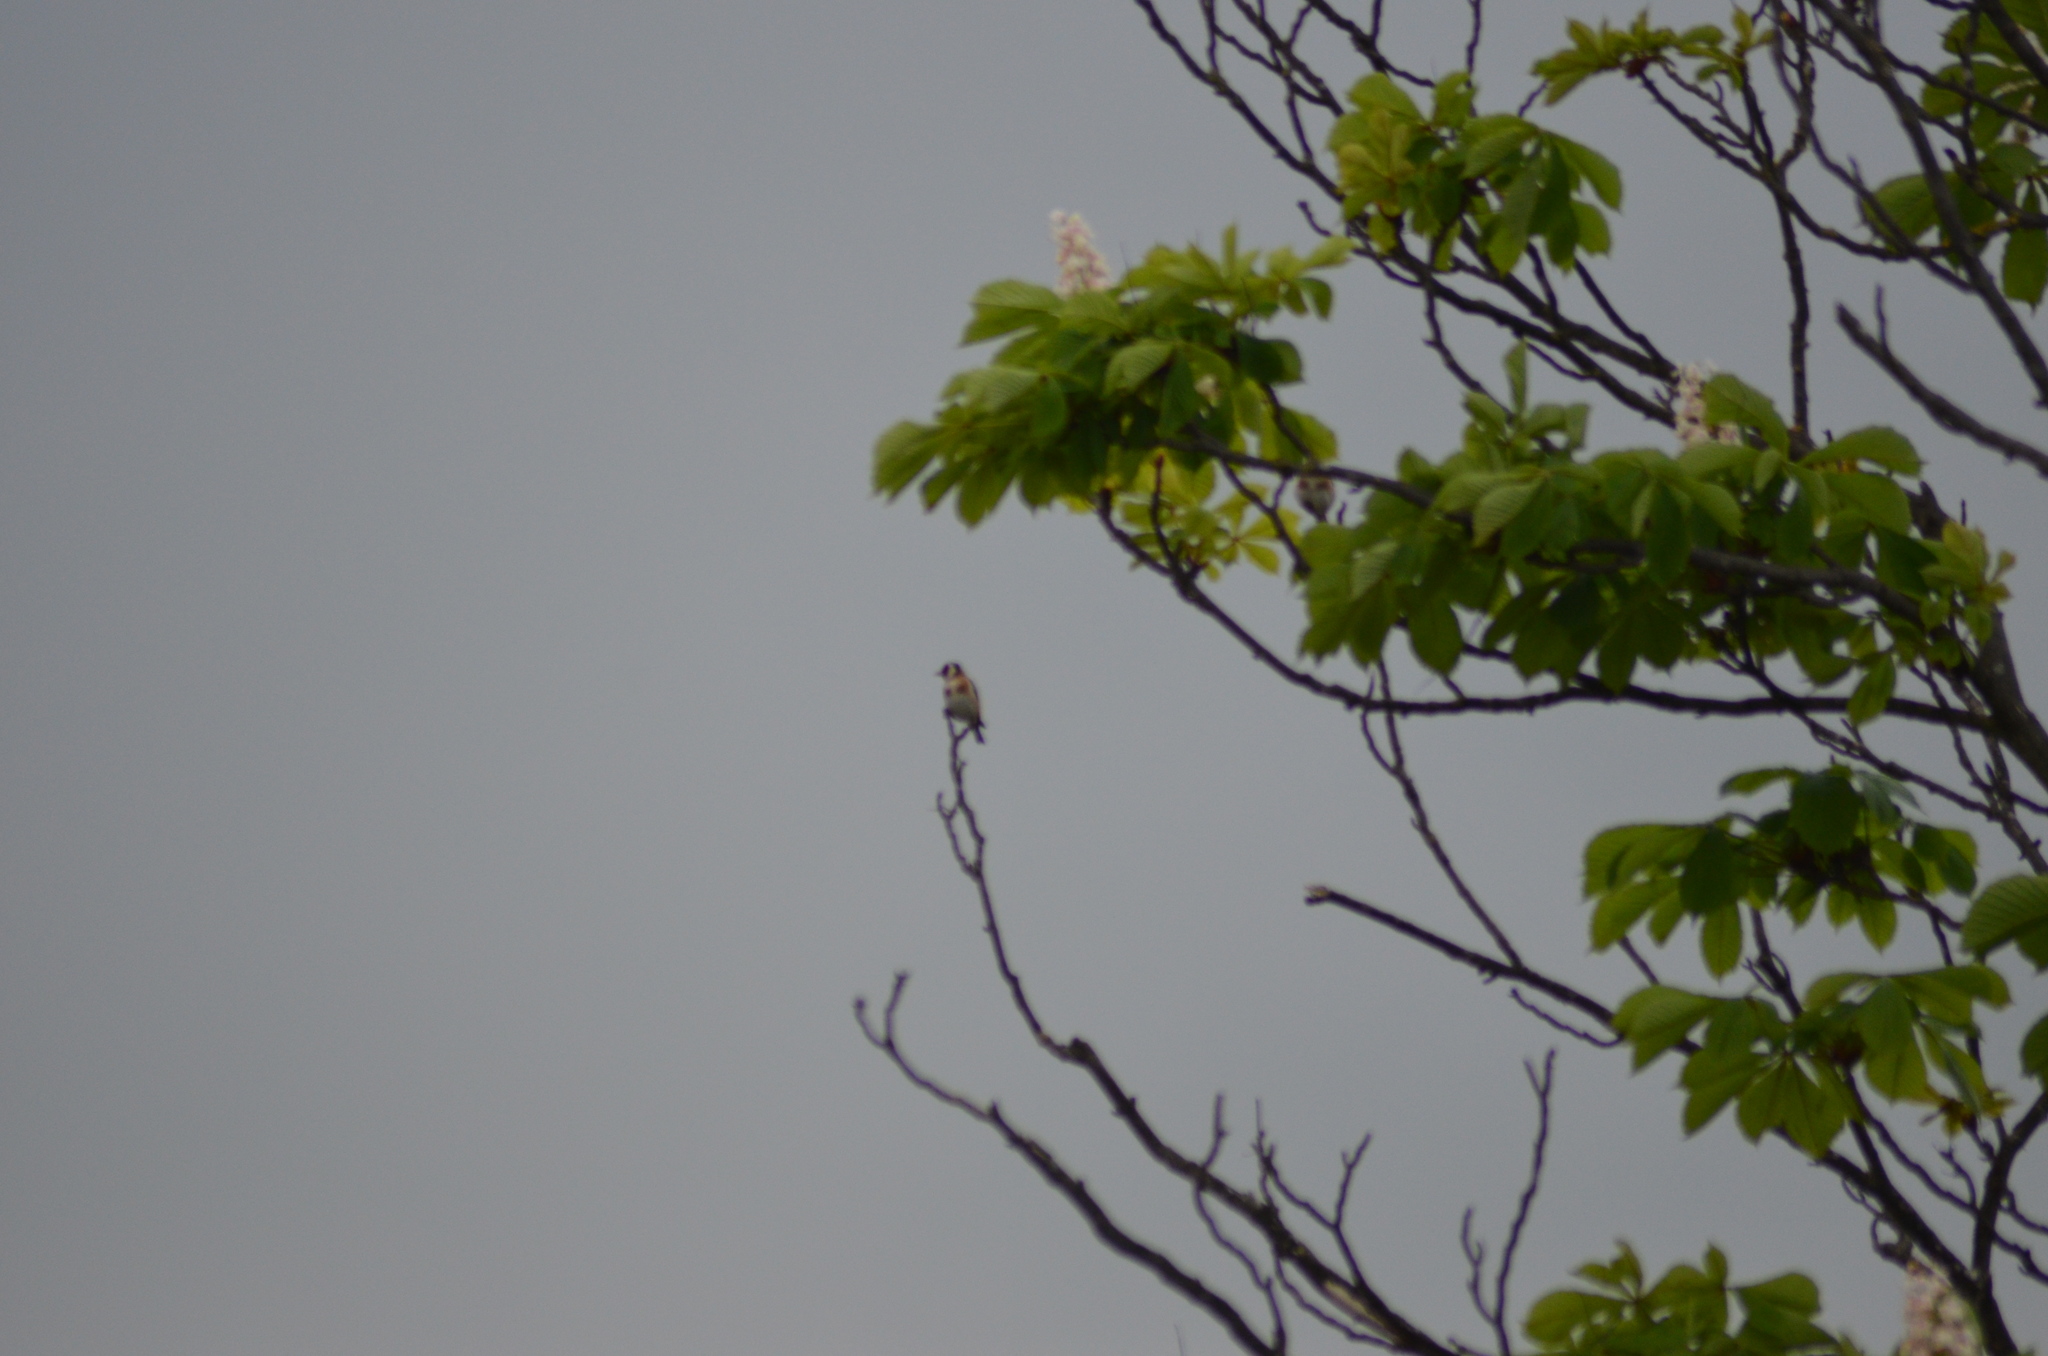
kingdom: Animalia
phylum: Chordata
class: Aves
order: Passeriformes
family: Fringillidae
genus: Carduelis
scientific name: Carduelis carduelis
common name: European goldfinch
